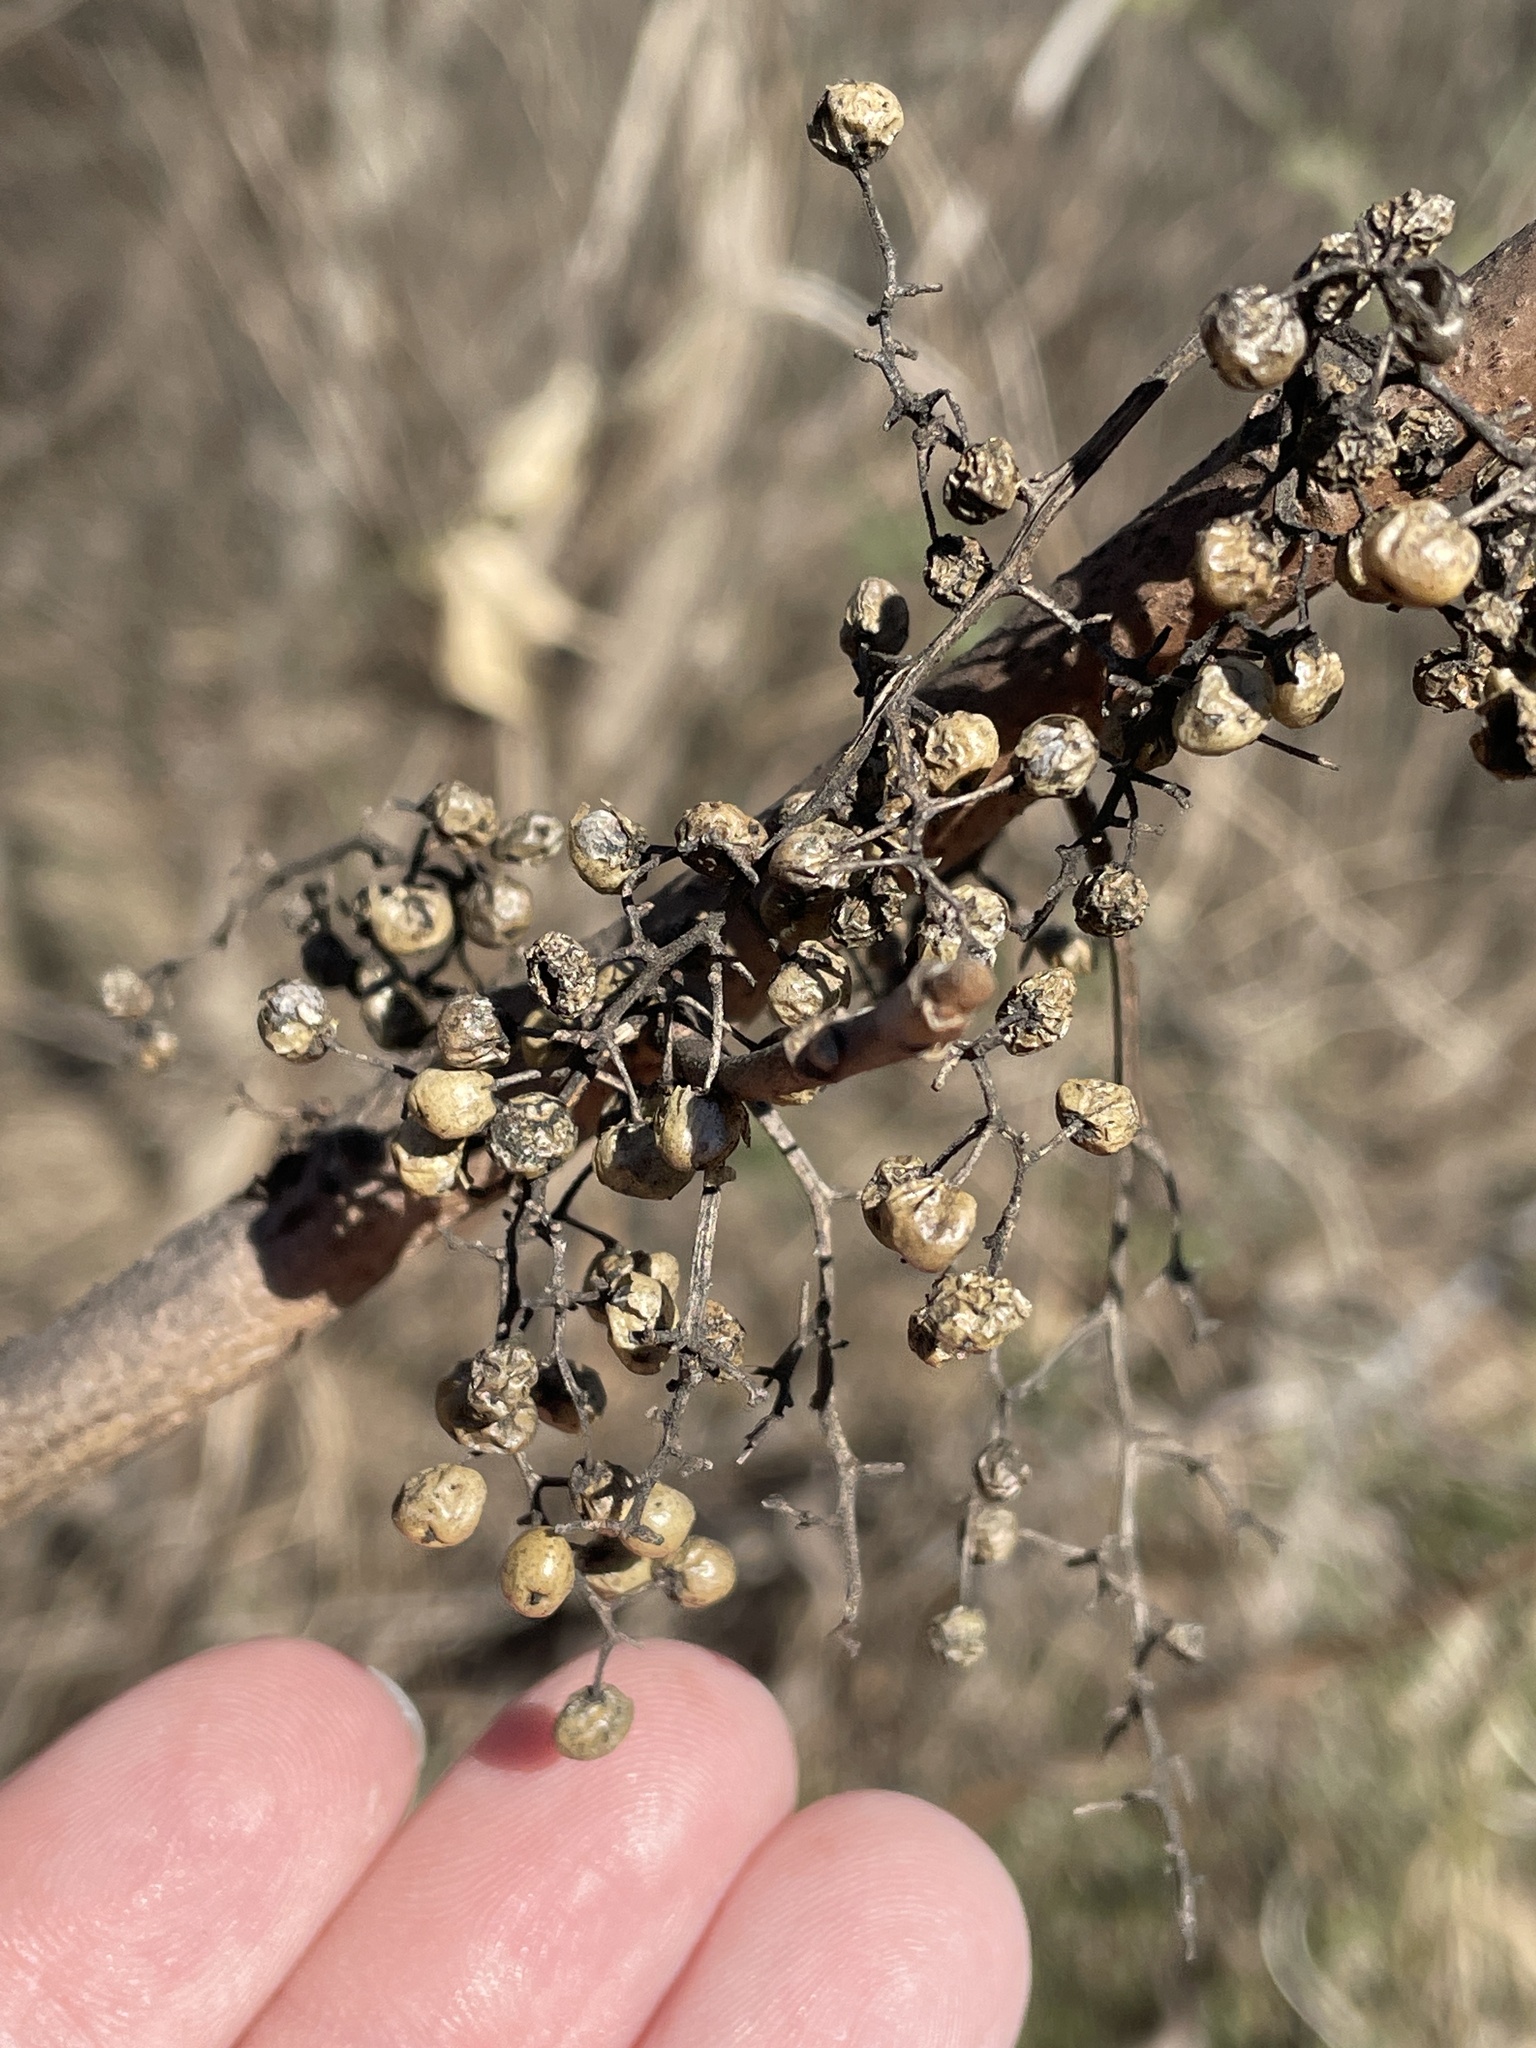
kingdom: Plantae
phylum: Tracheophyta
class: Magnoliopsida
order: Sapindales
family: Anacardiaceae
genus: Toxicodendron
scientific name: Toxicodendron radicans
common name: Poison ivy
